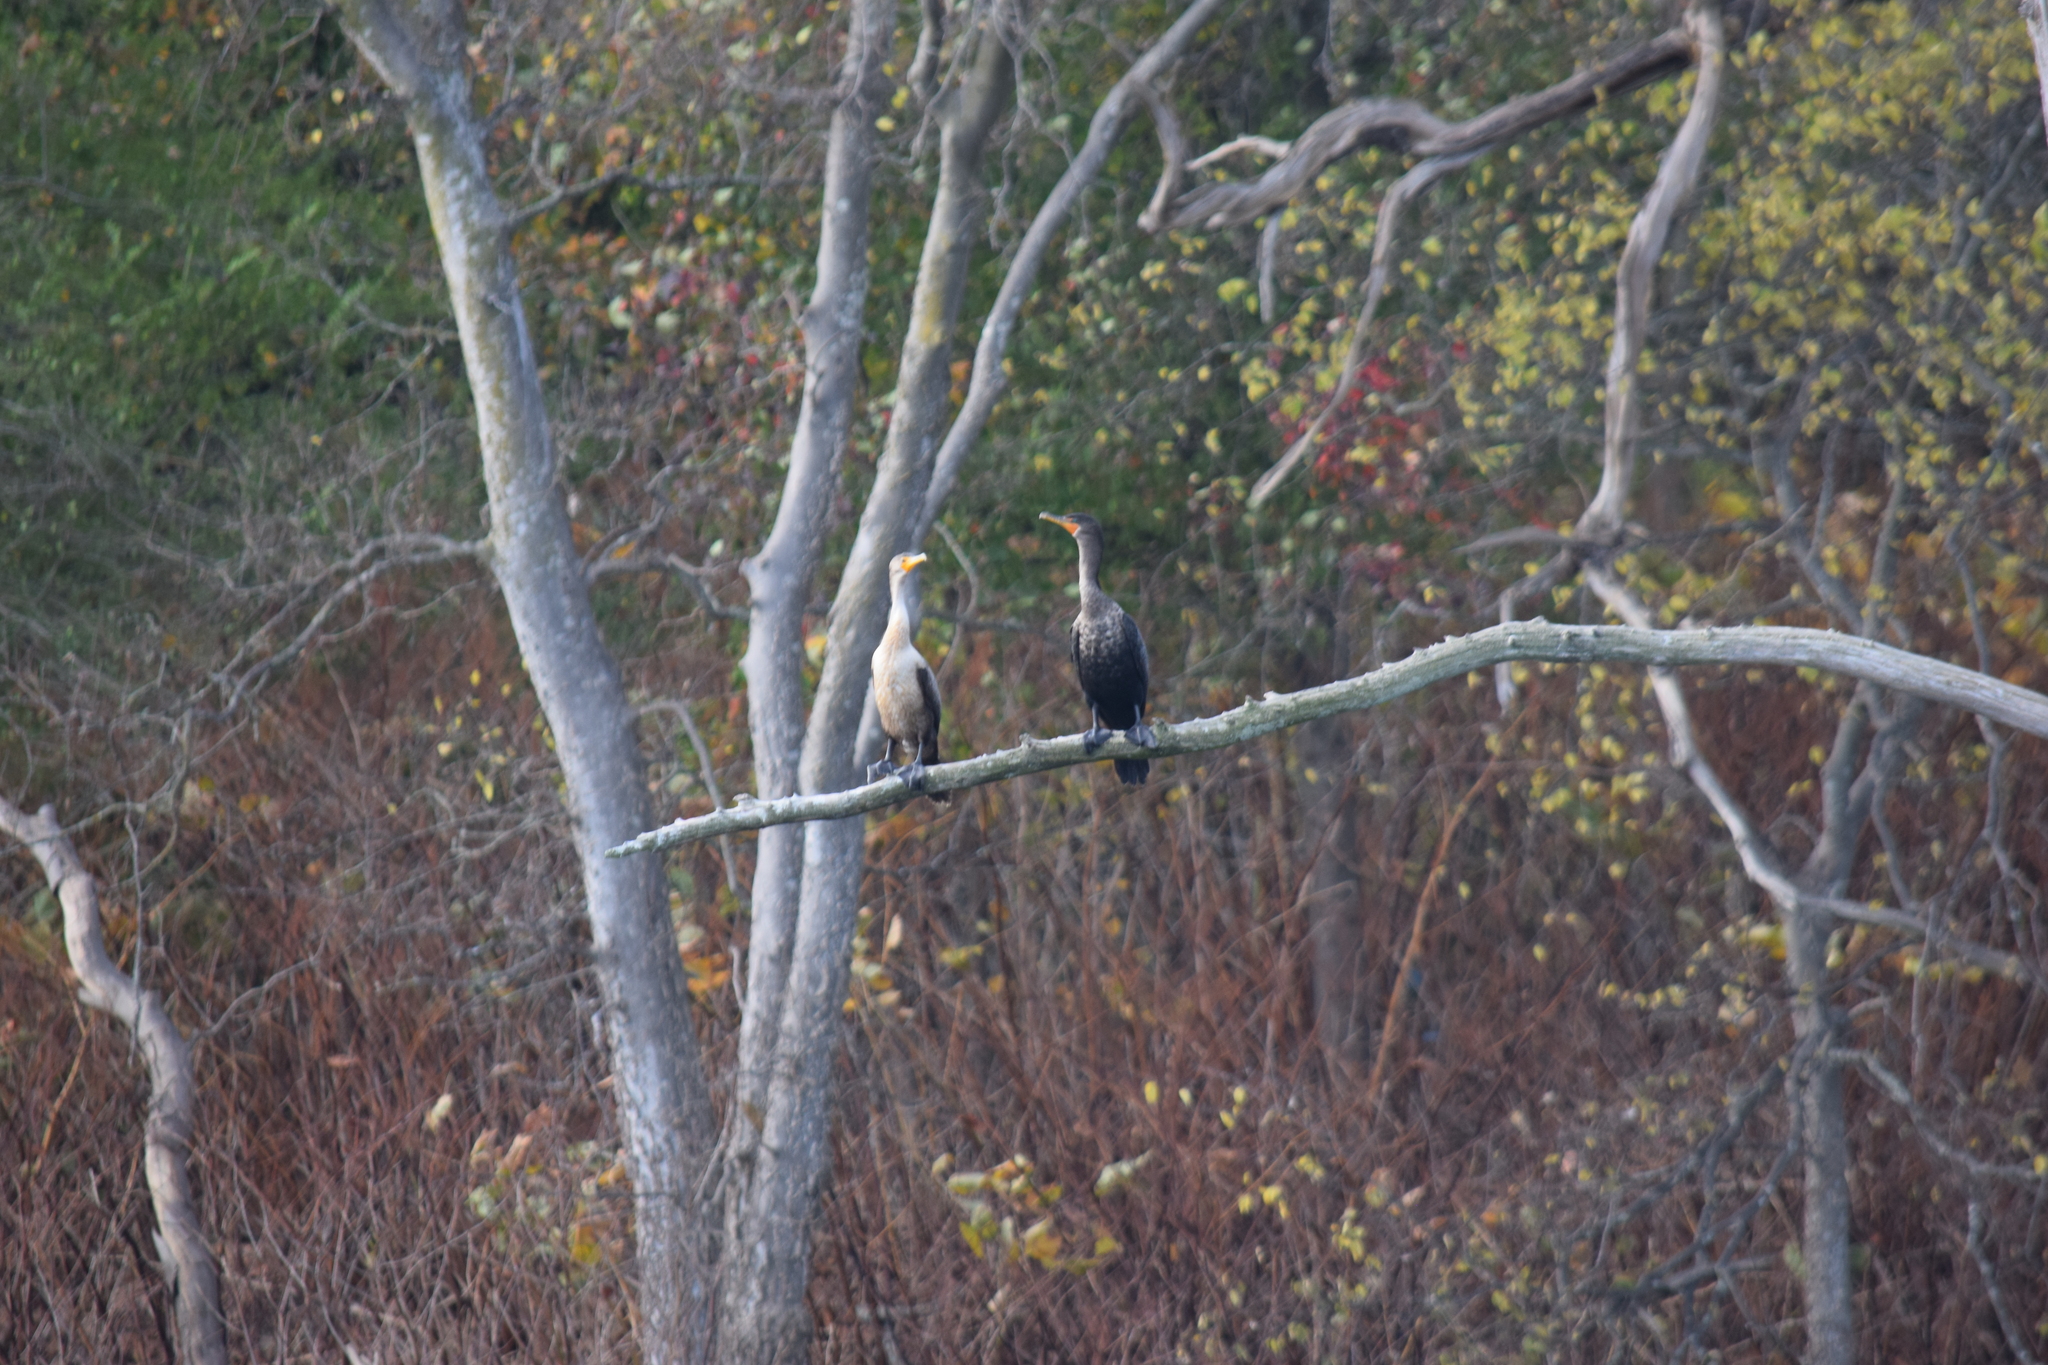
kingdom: Animalia
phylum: Chordata
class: Aves
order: Suliformes
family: Phalacrocoracidae
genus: Phalacrocorax
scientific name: Phalacrocorax auritus
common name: Double-crested cormorant
